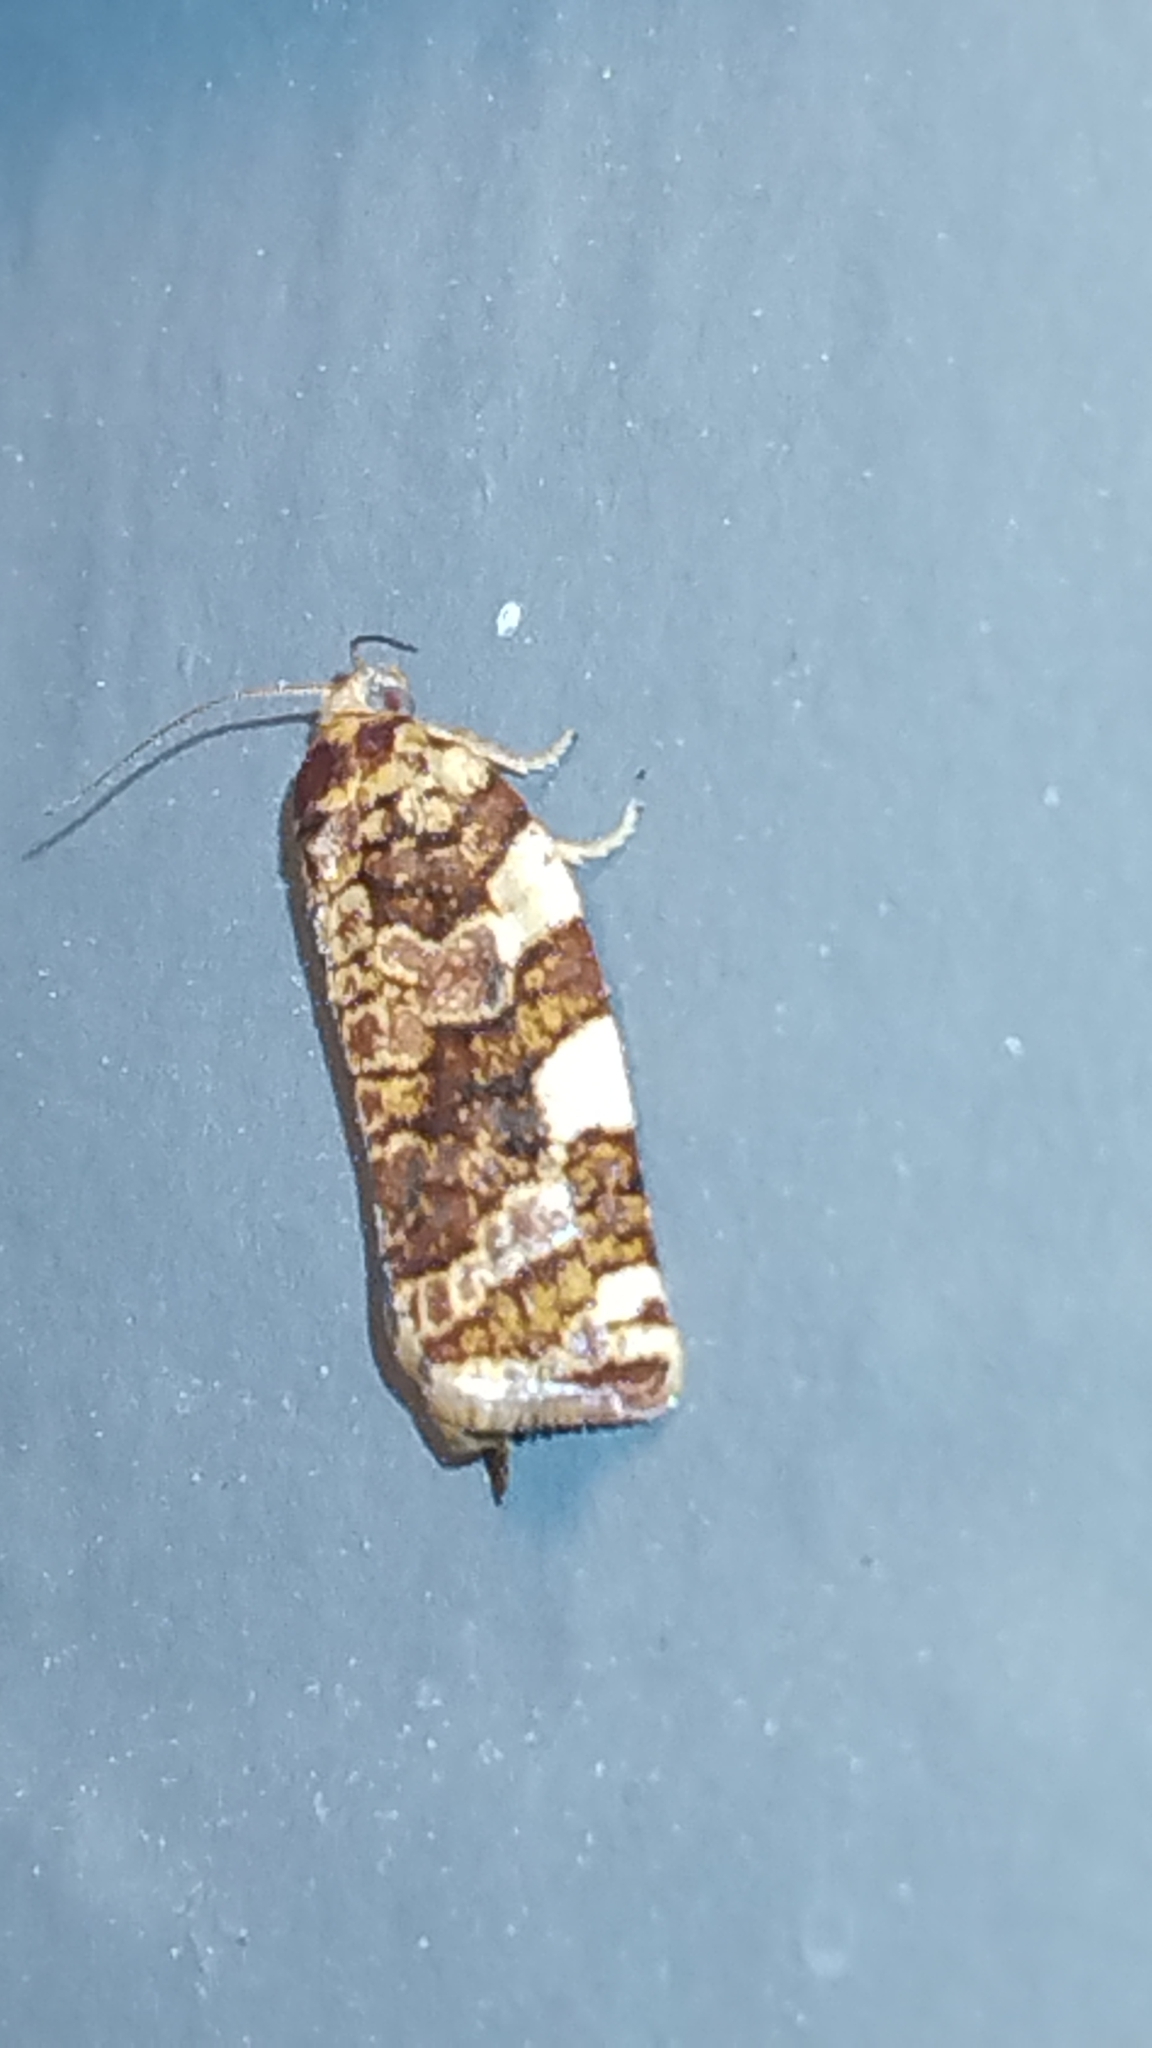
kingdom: Animalia
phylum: Arthropoda
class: Insecta
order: Lepidoptera
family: Tortricidae
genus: Archips
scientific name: Archips argyrospila
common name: Fruit-tree leafroller moth
